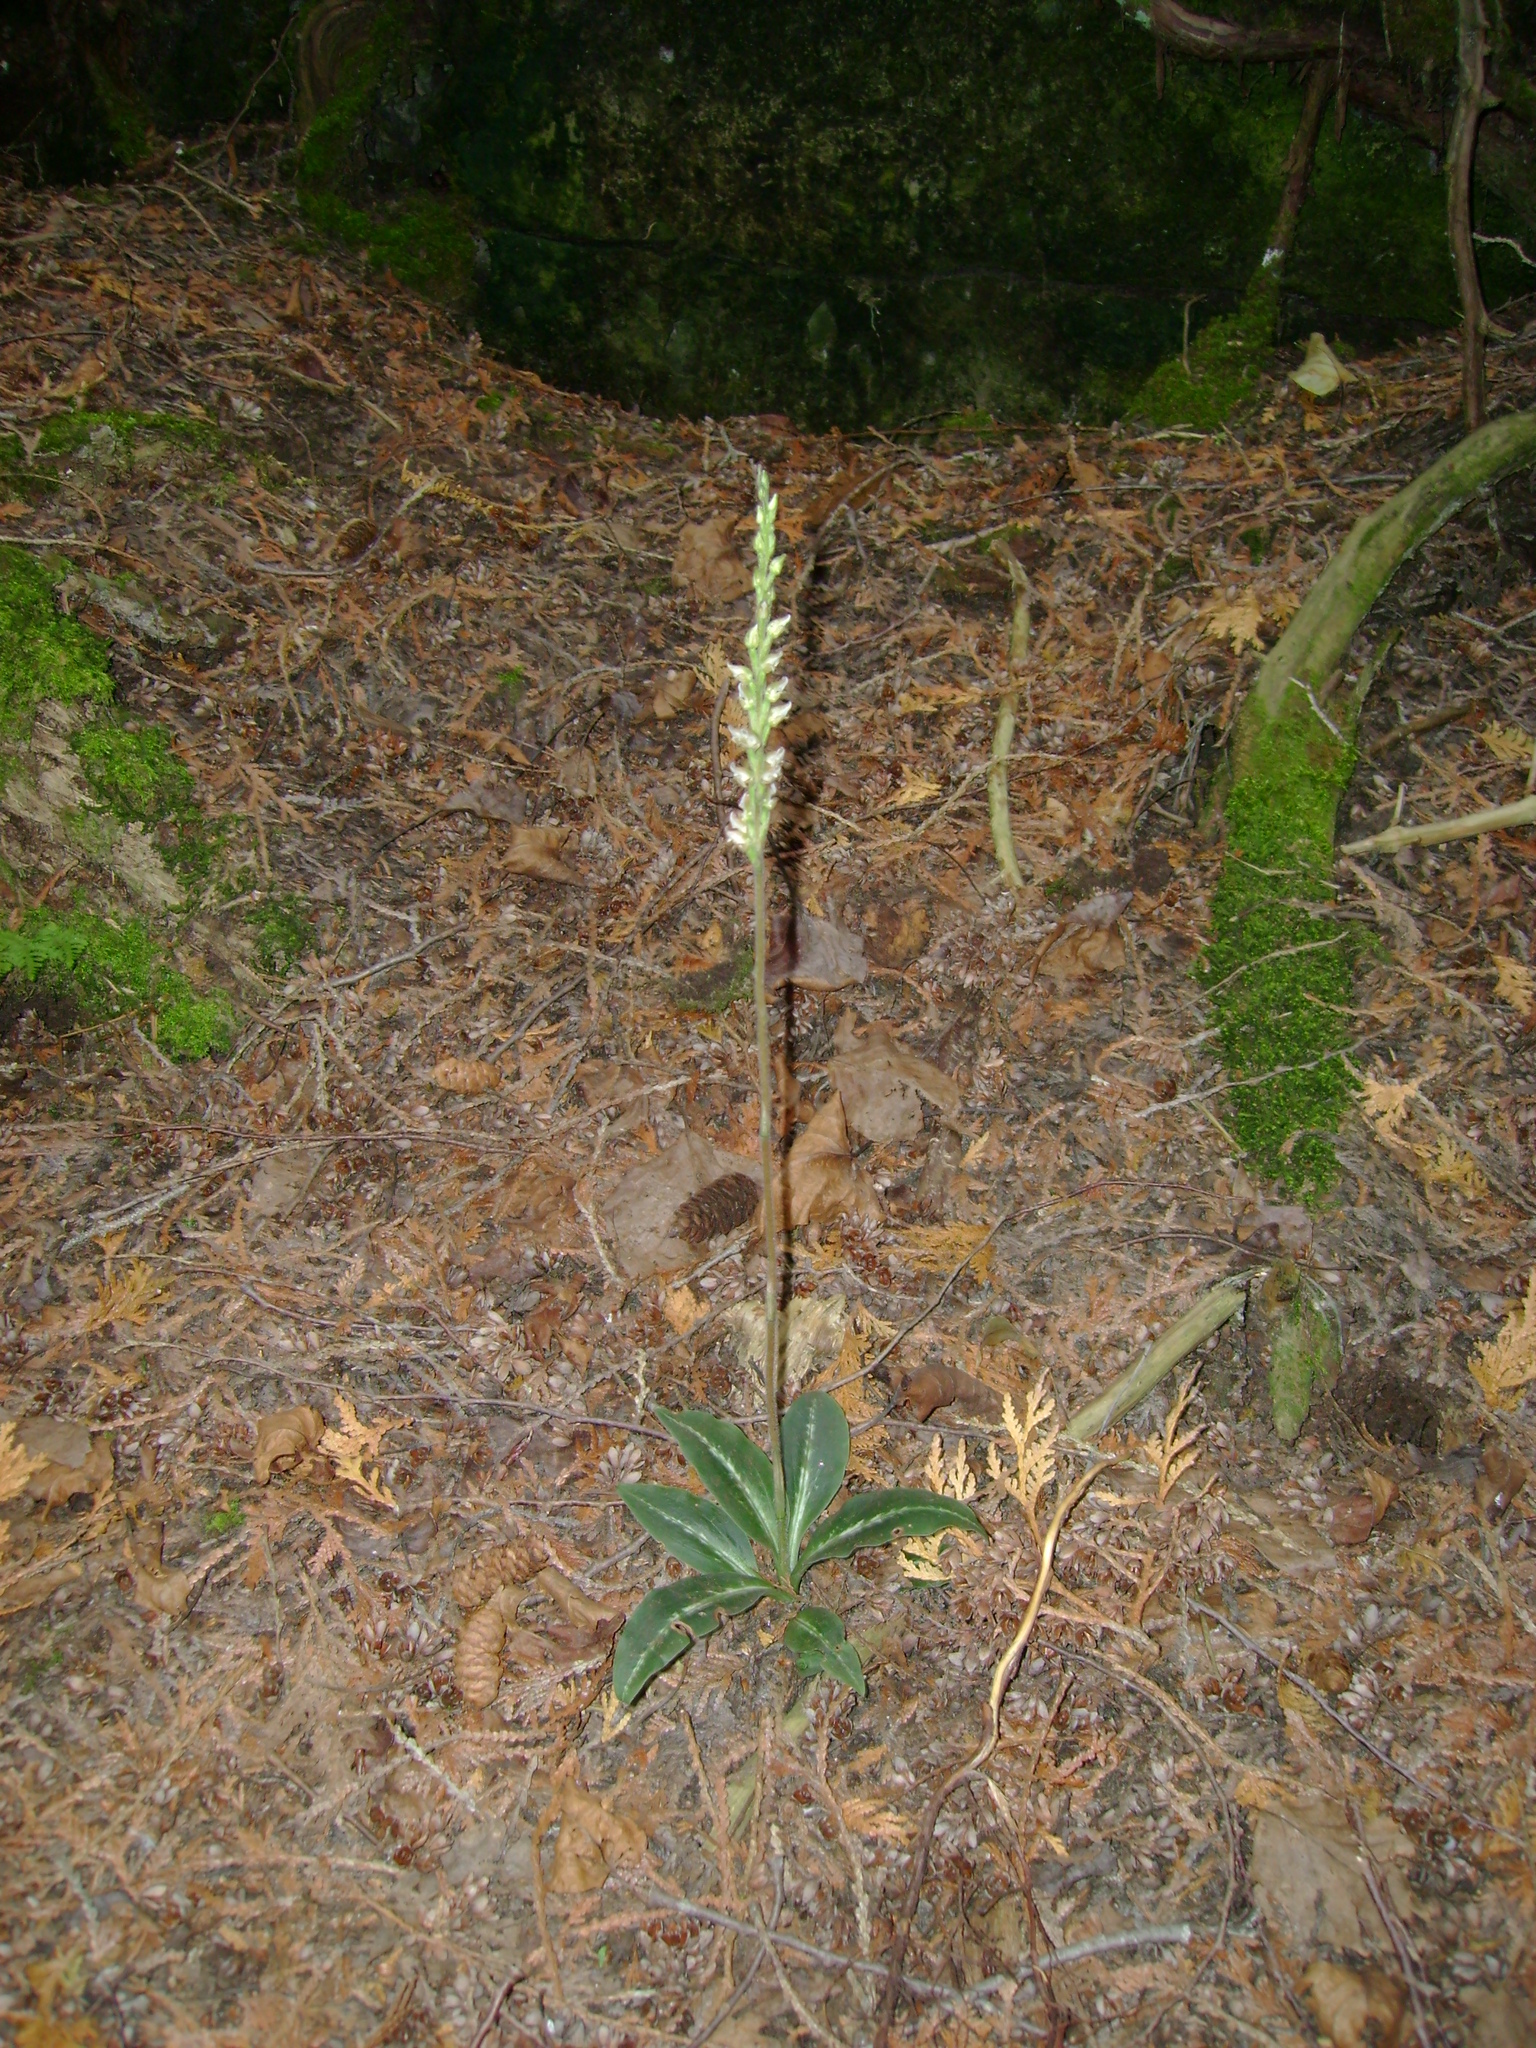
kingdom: Plantae
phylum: Tracheophyta
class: Liliopsida
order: Asparagales
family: Orchidaceae
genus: Goodyera
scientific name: Goodyera oblongifolia
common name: Giant rattlesnake-plantain
